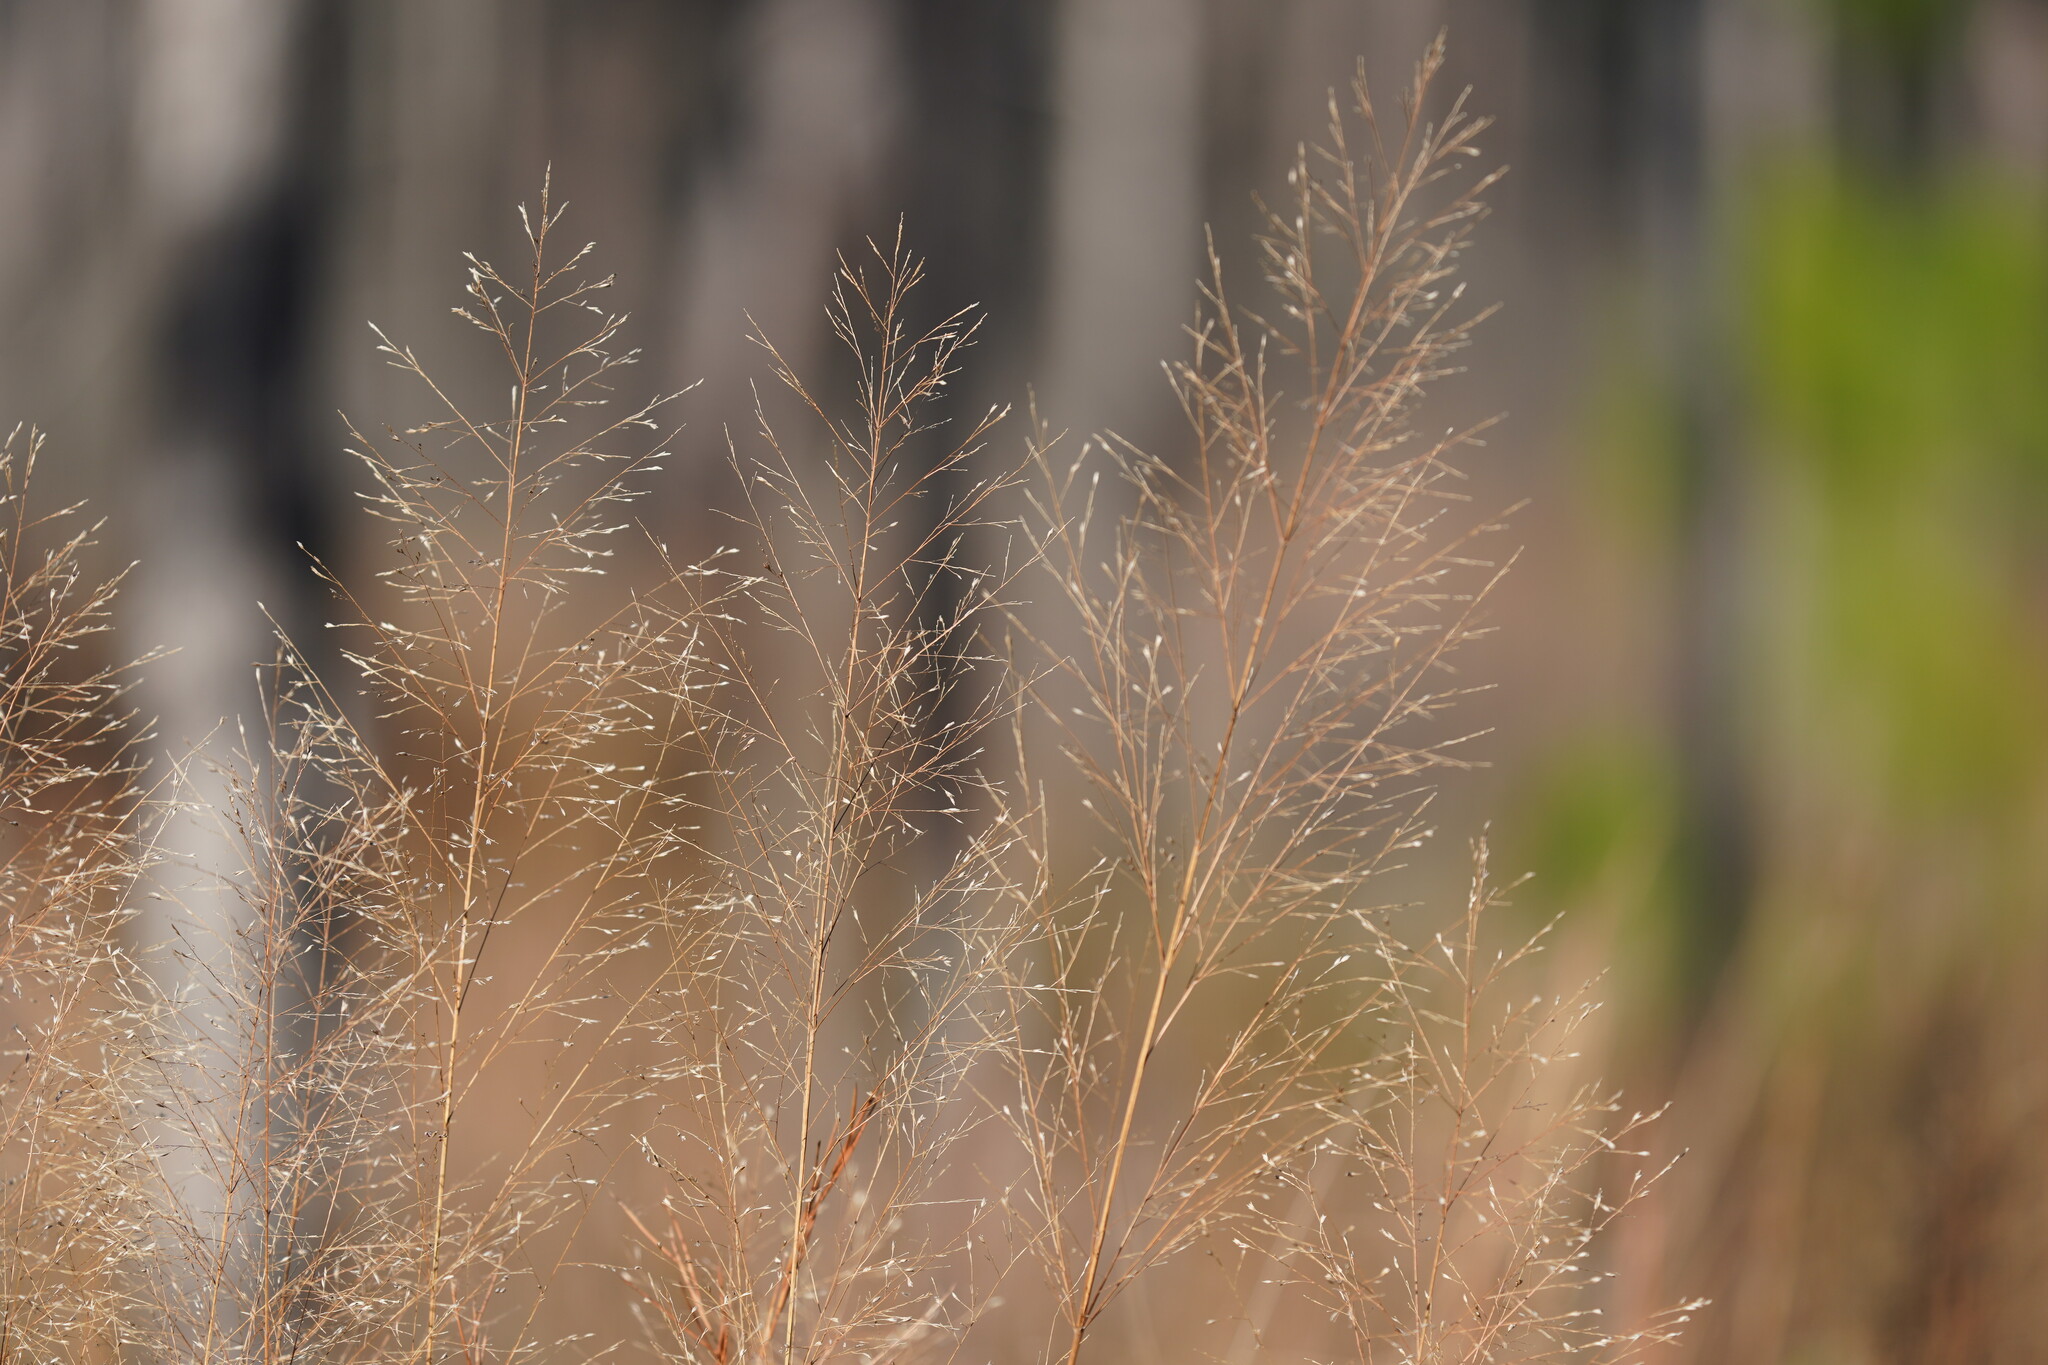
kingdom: Plantae
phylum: Tracheophyta
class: Liliopsida
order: Poales
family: Poaceae
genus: Panicum
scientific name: Panicum virgatum
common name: Switchgrass
